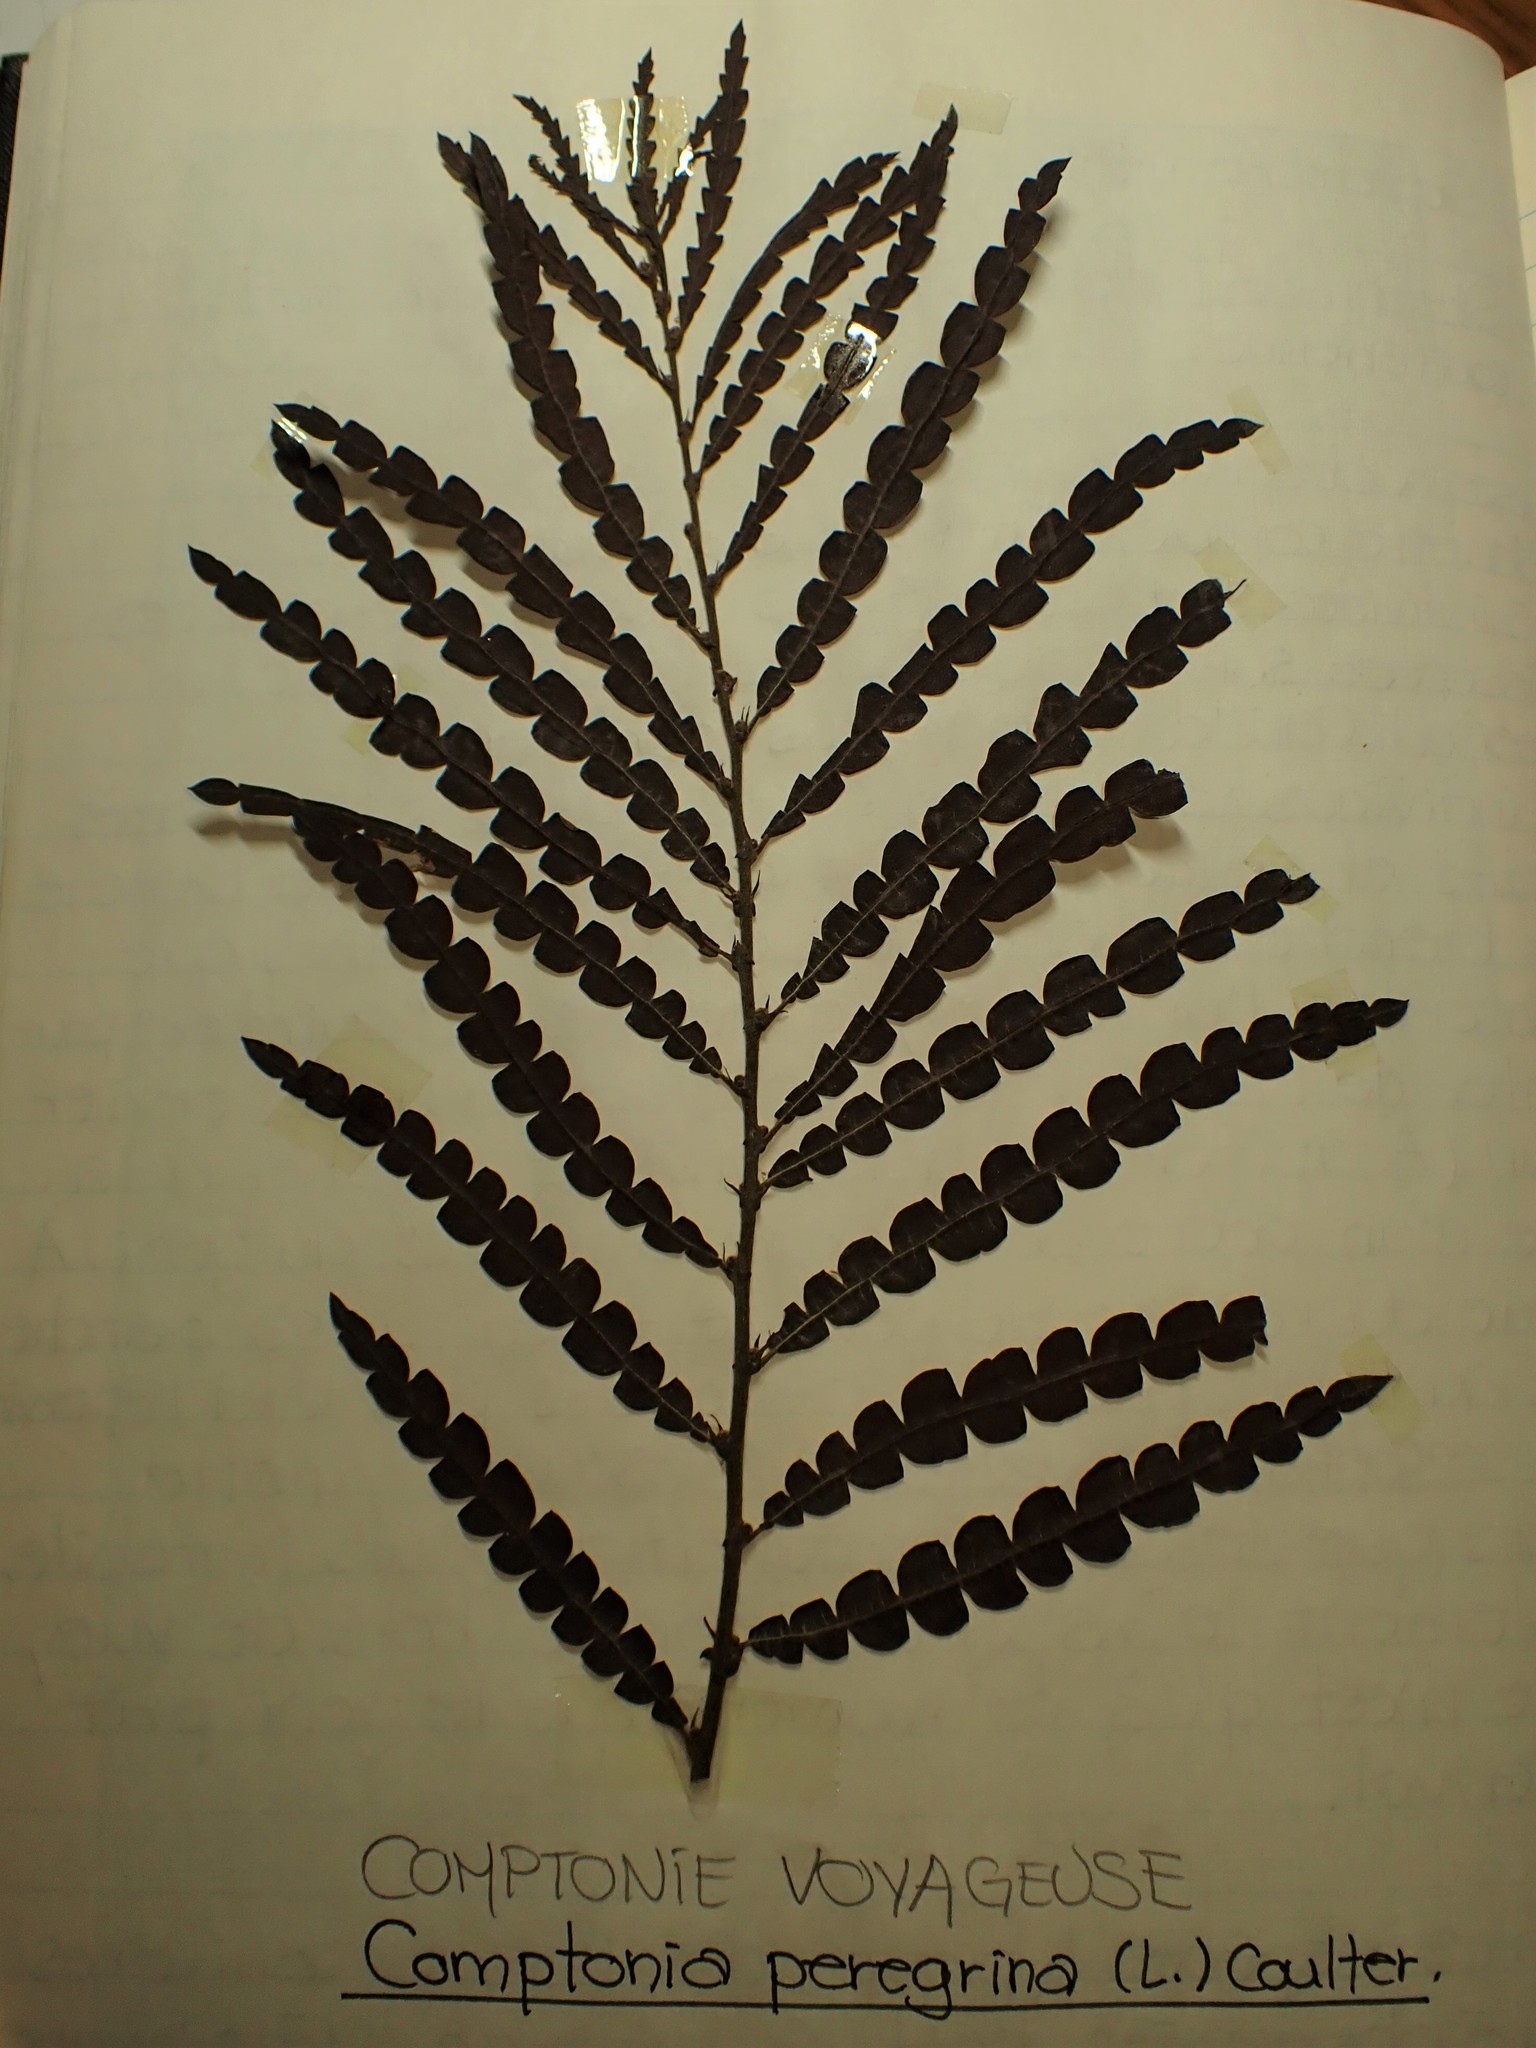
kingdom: Plantae
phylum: Tracheophyta
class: Magnoliopsida
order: Fagales
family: Myricaceae
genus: Comptonia
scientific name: Comptonia peregrina
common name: Sweet-fern
